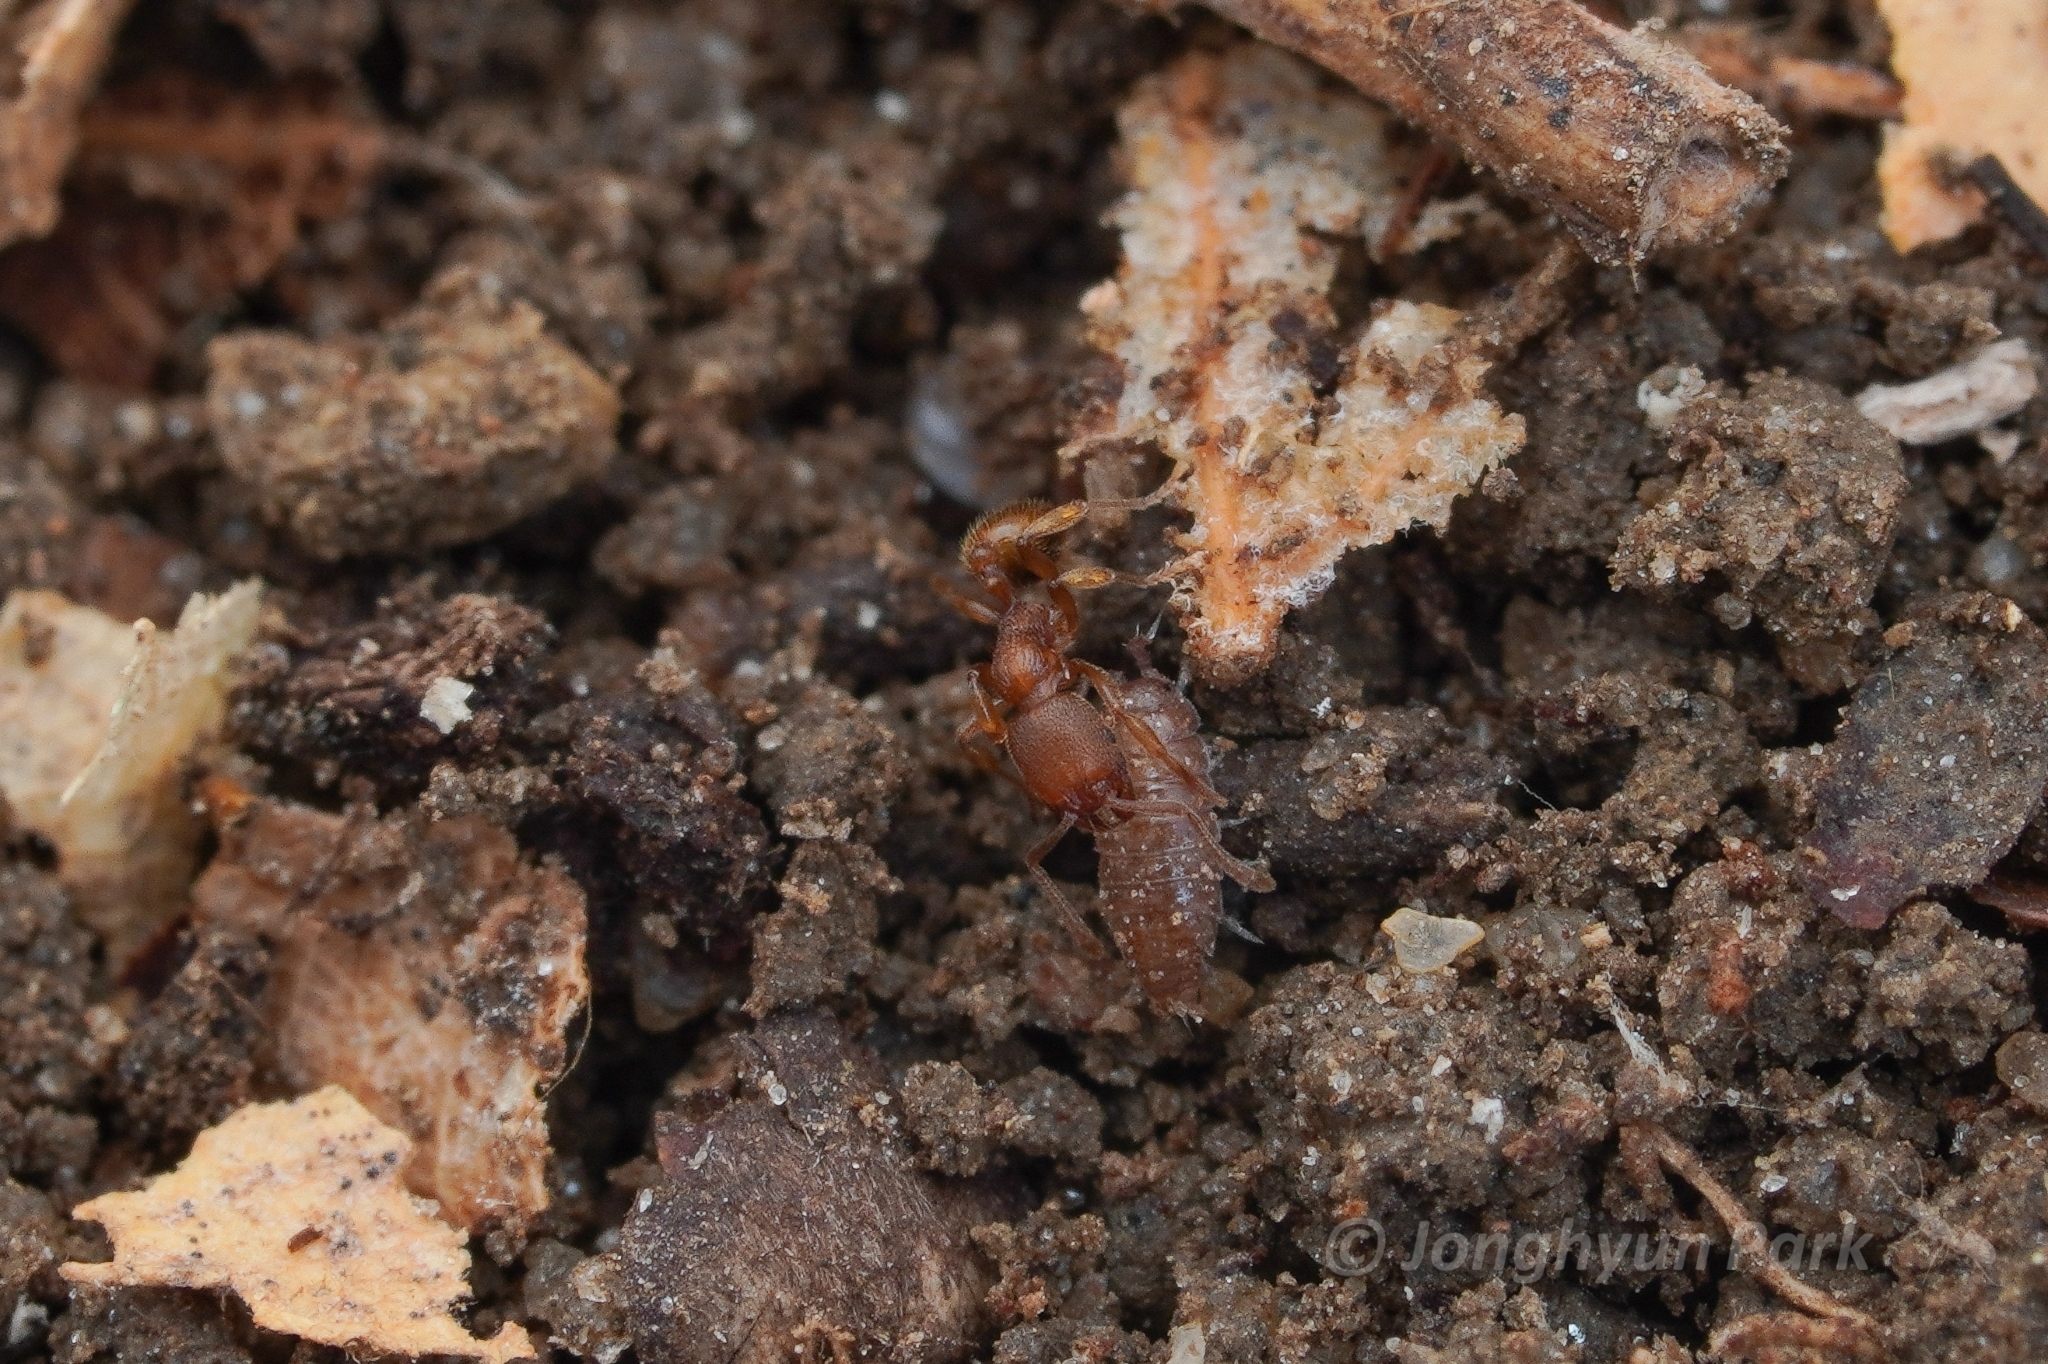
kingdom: Animalia
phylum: Arthropoda
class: Insecta
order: Hymenoptera
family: Formicidae
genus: Stenamma
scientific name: Stenamma impar
